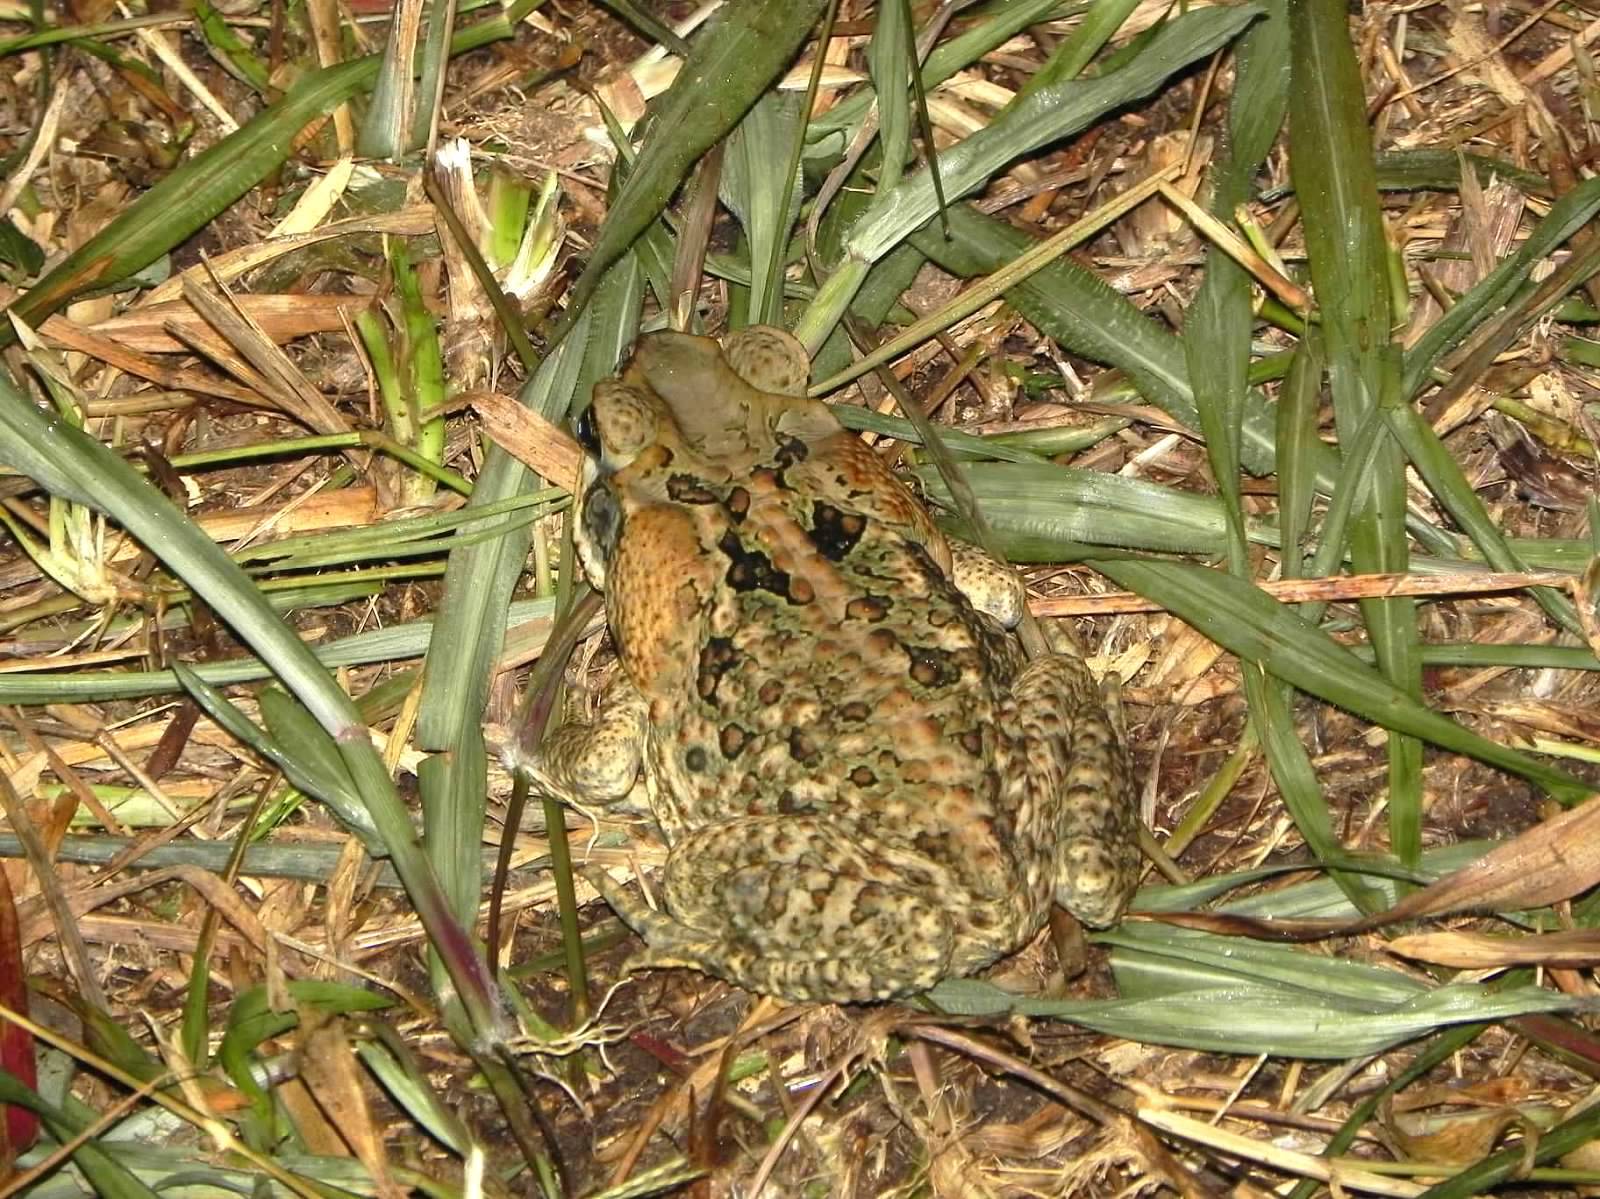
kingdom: Animalia
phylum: Chordata
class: Amphibia
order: Anura
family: Bufonidae
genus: Rhinella
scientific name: Rhinella marina
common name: Cane toad
